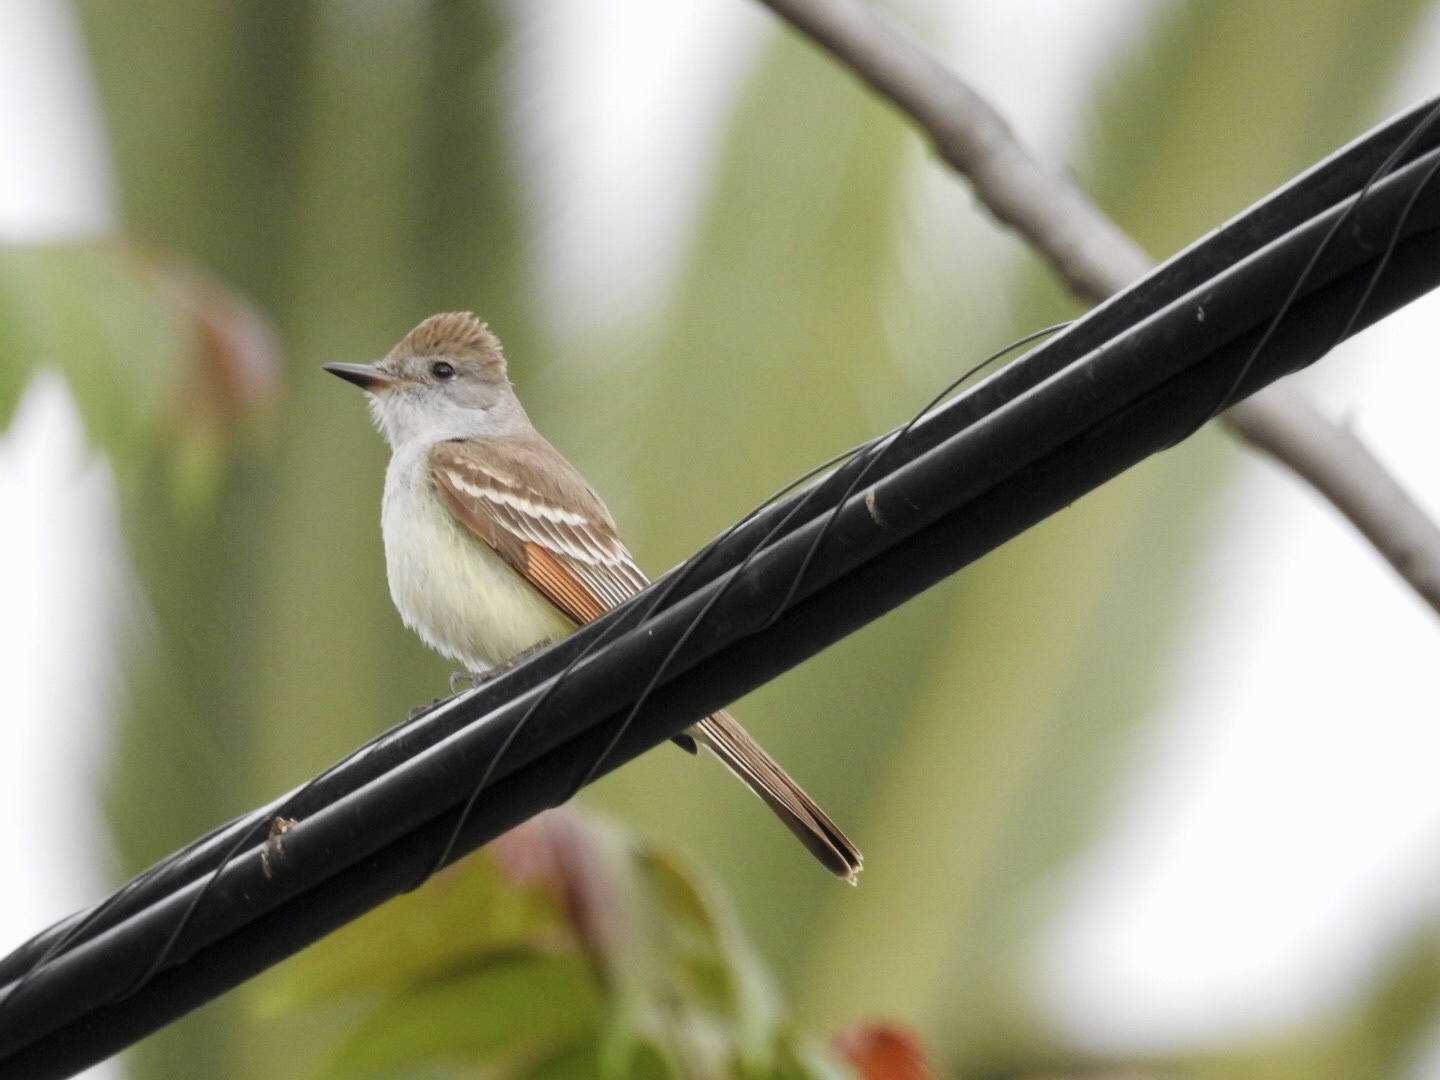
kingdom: Animalia
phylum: Chordata
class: Aves
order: Passeriformes
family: Tyrannidae
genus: Myiarchus
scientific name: Myiarchus cinerascens
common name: Ash-throated flycatcher
